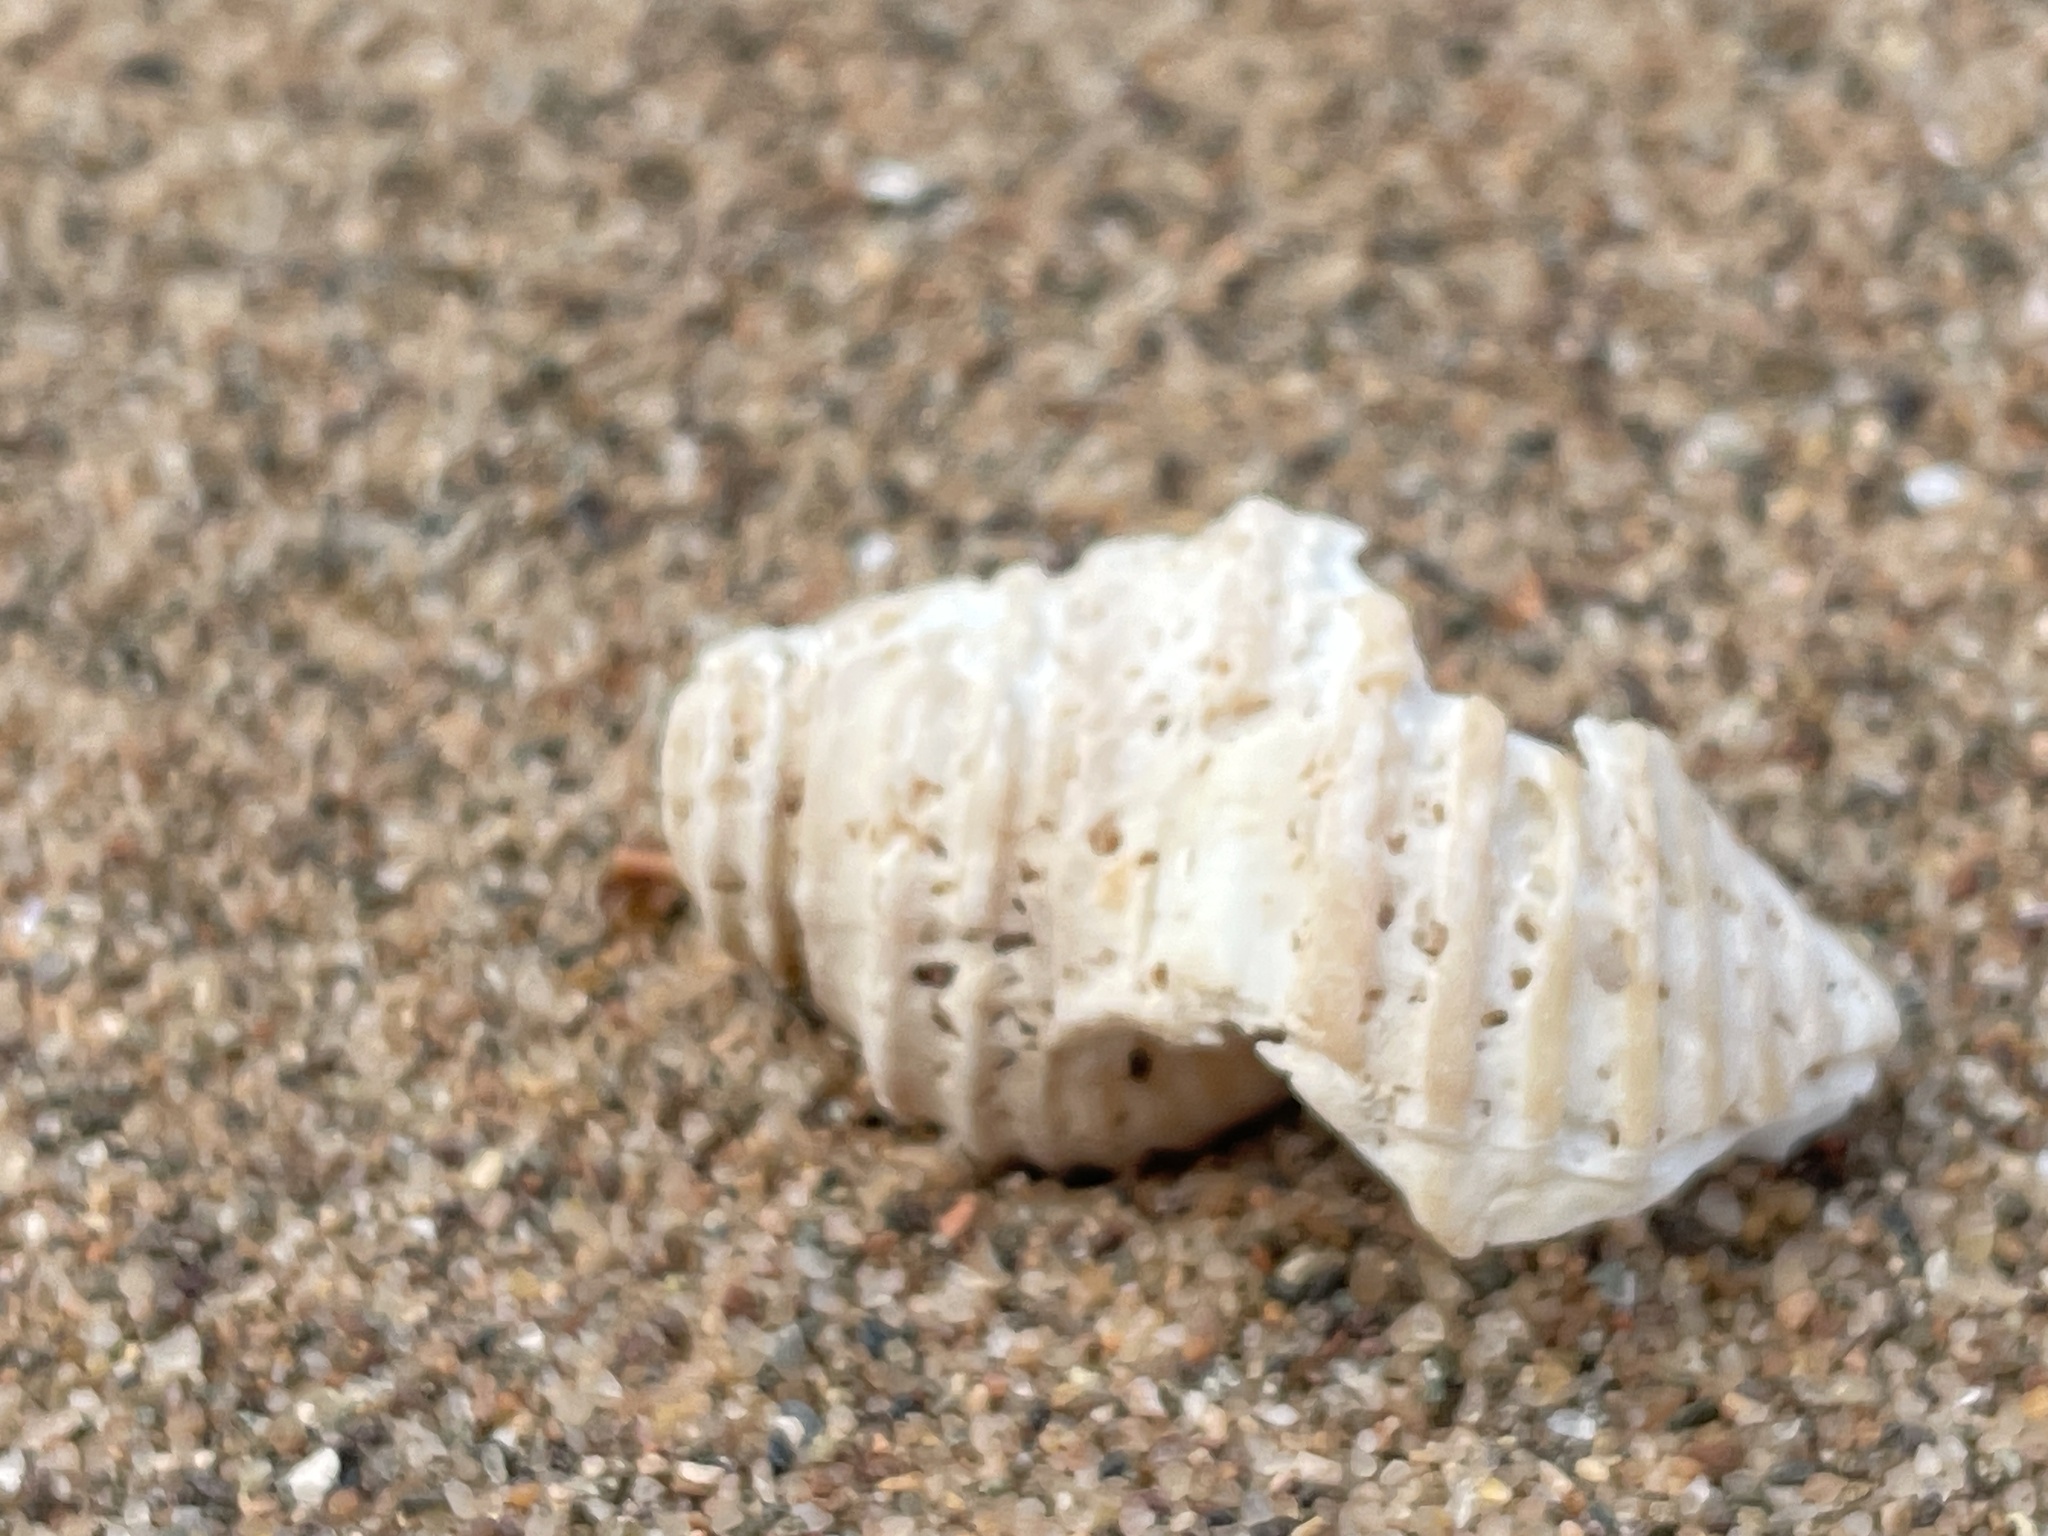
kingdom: Animalia
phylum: Mollusca
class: Gastropoda
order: Neogastropoda
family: Buccinidae
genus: Neptunea
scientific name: Neptunea decemcostata
